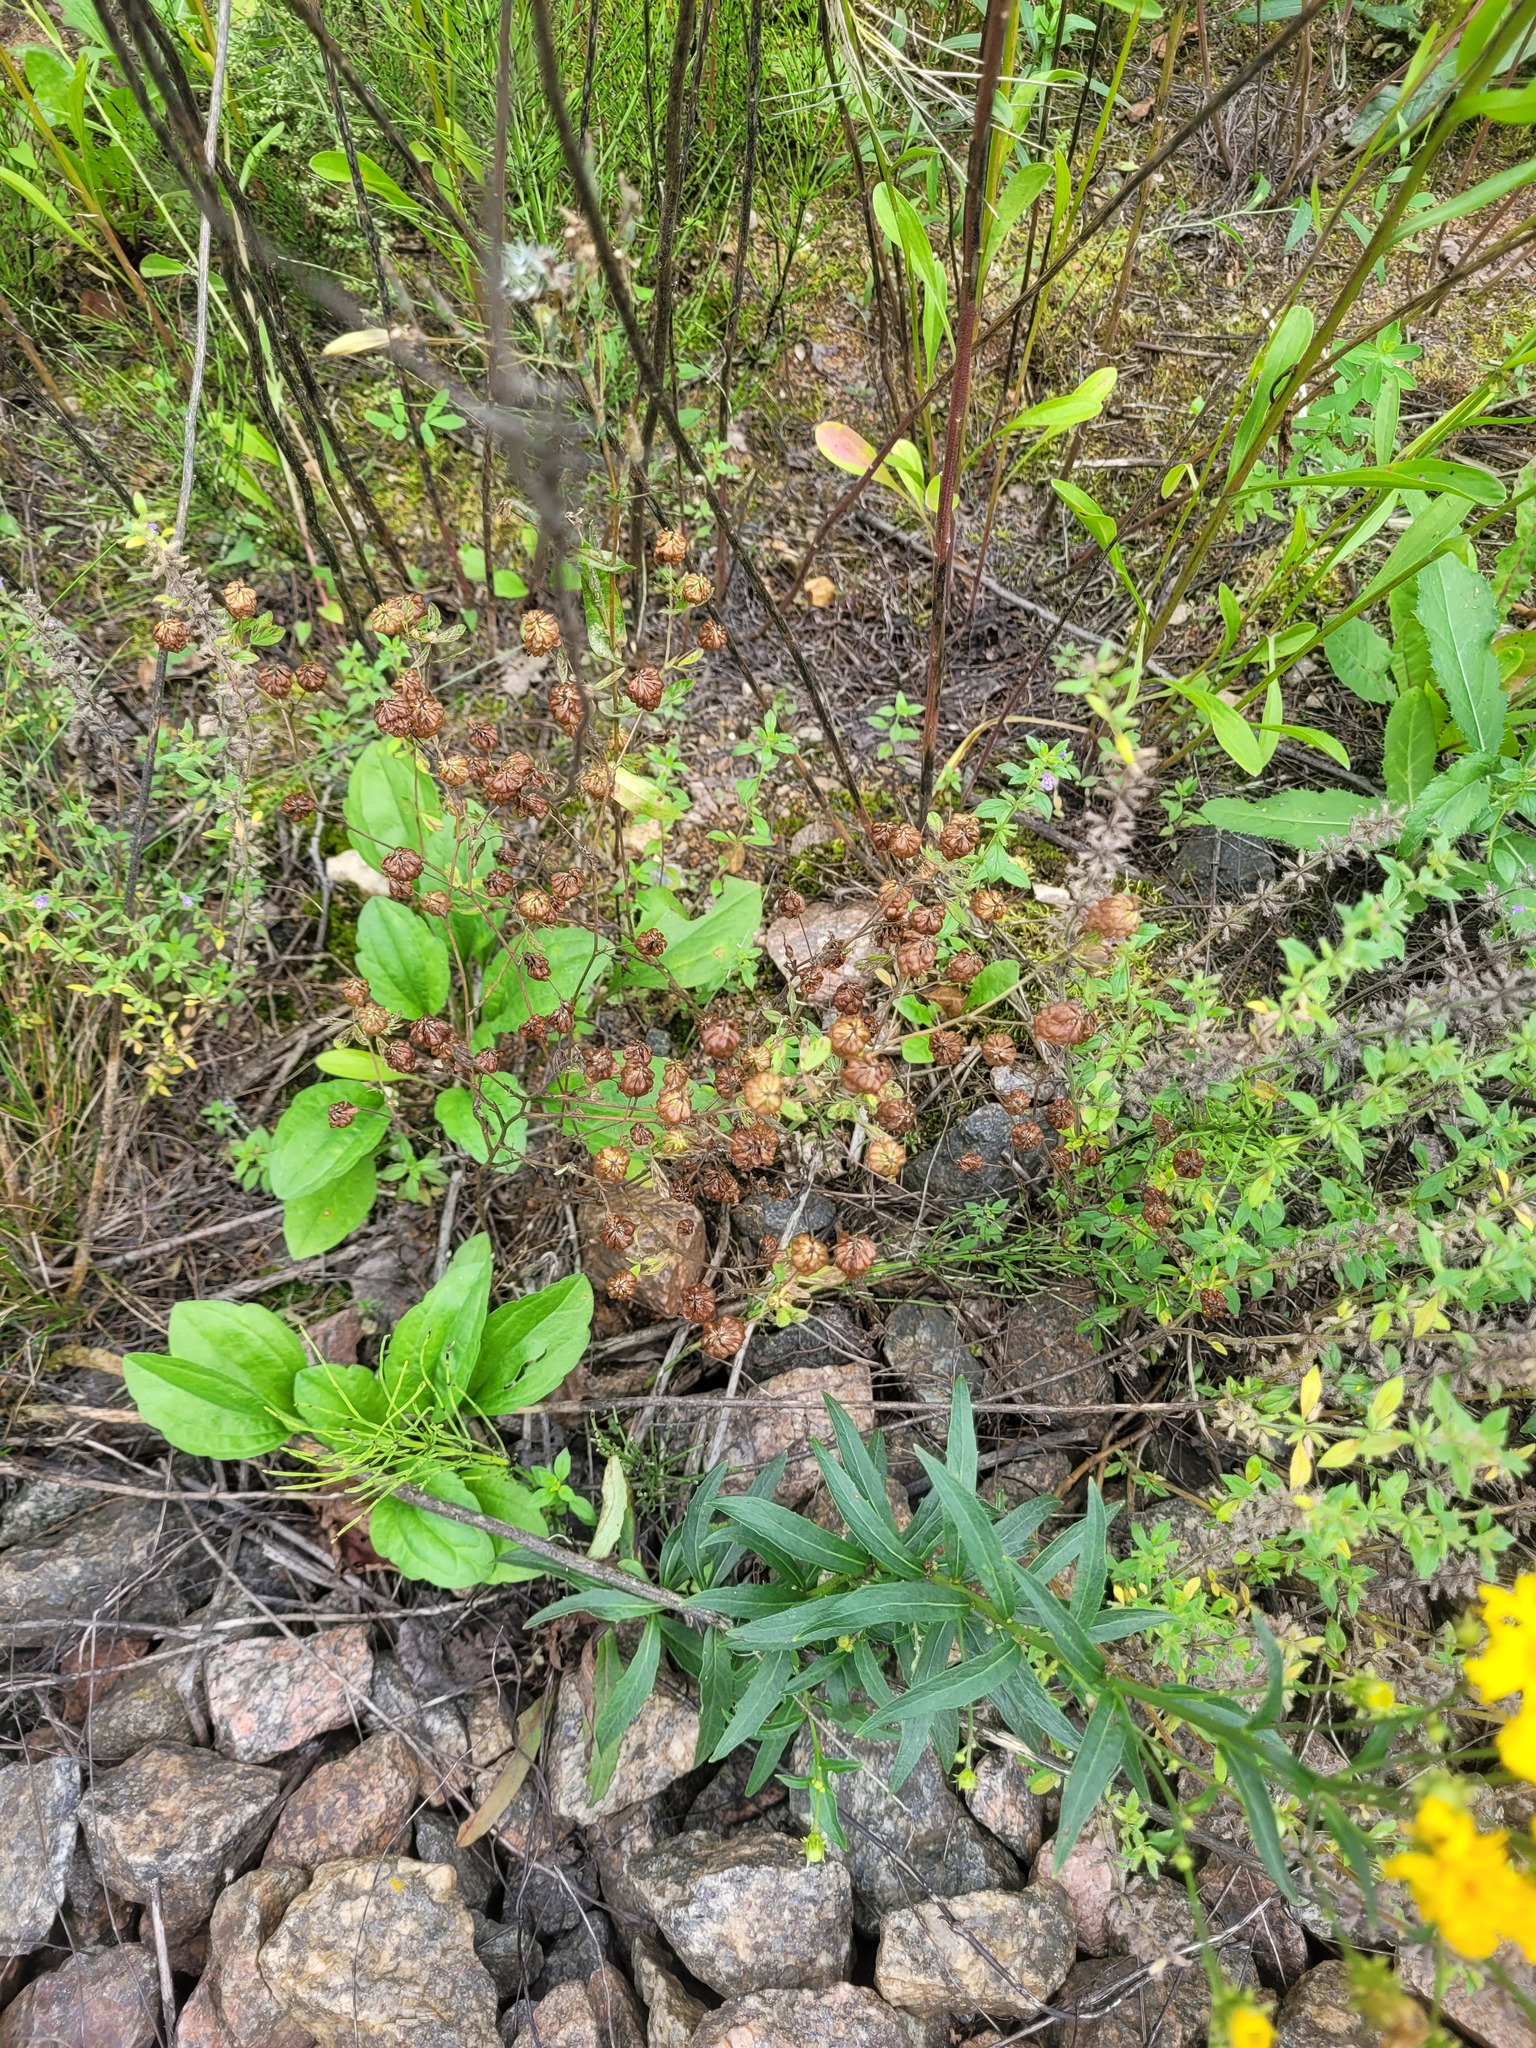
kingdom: Plantae
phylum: Tracheophyta
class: Magnoliopsida
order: Fabales
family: Fabaceae
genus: Trifolium
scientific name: Trifolium aureum
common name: Golden clover
